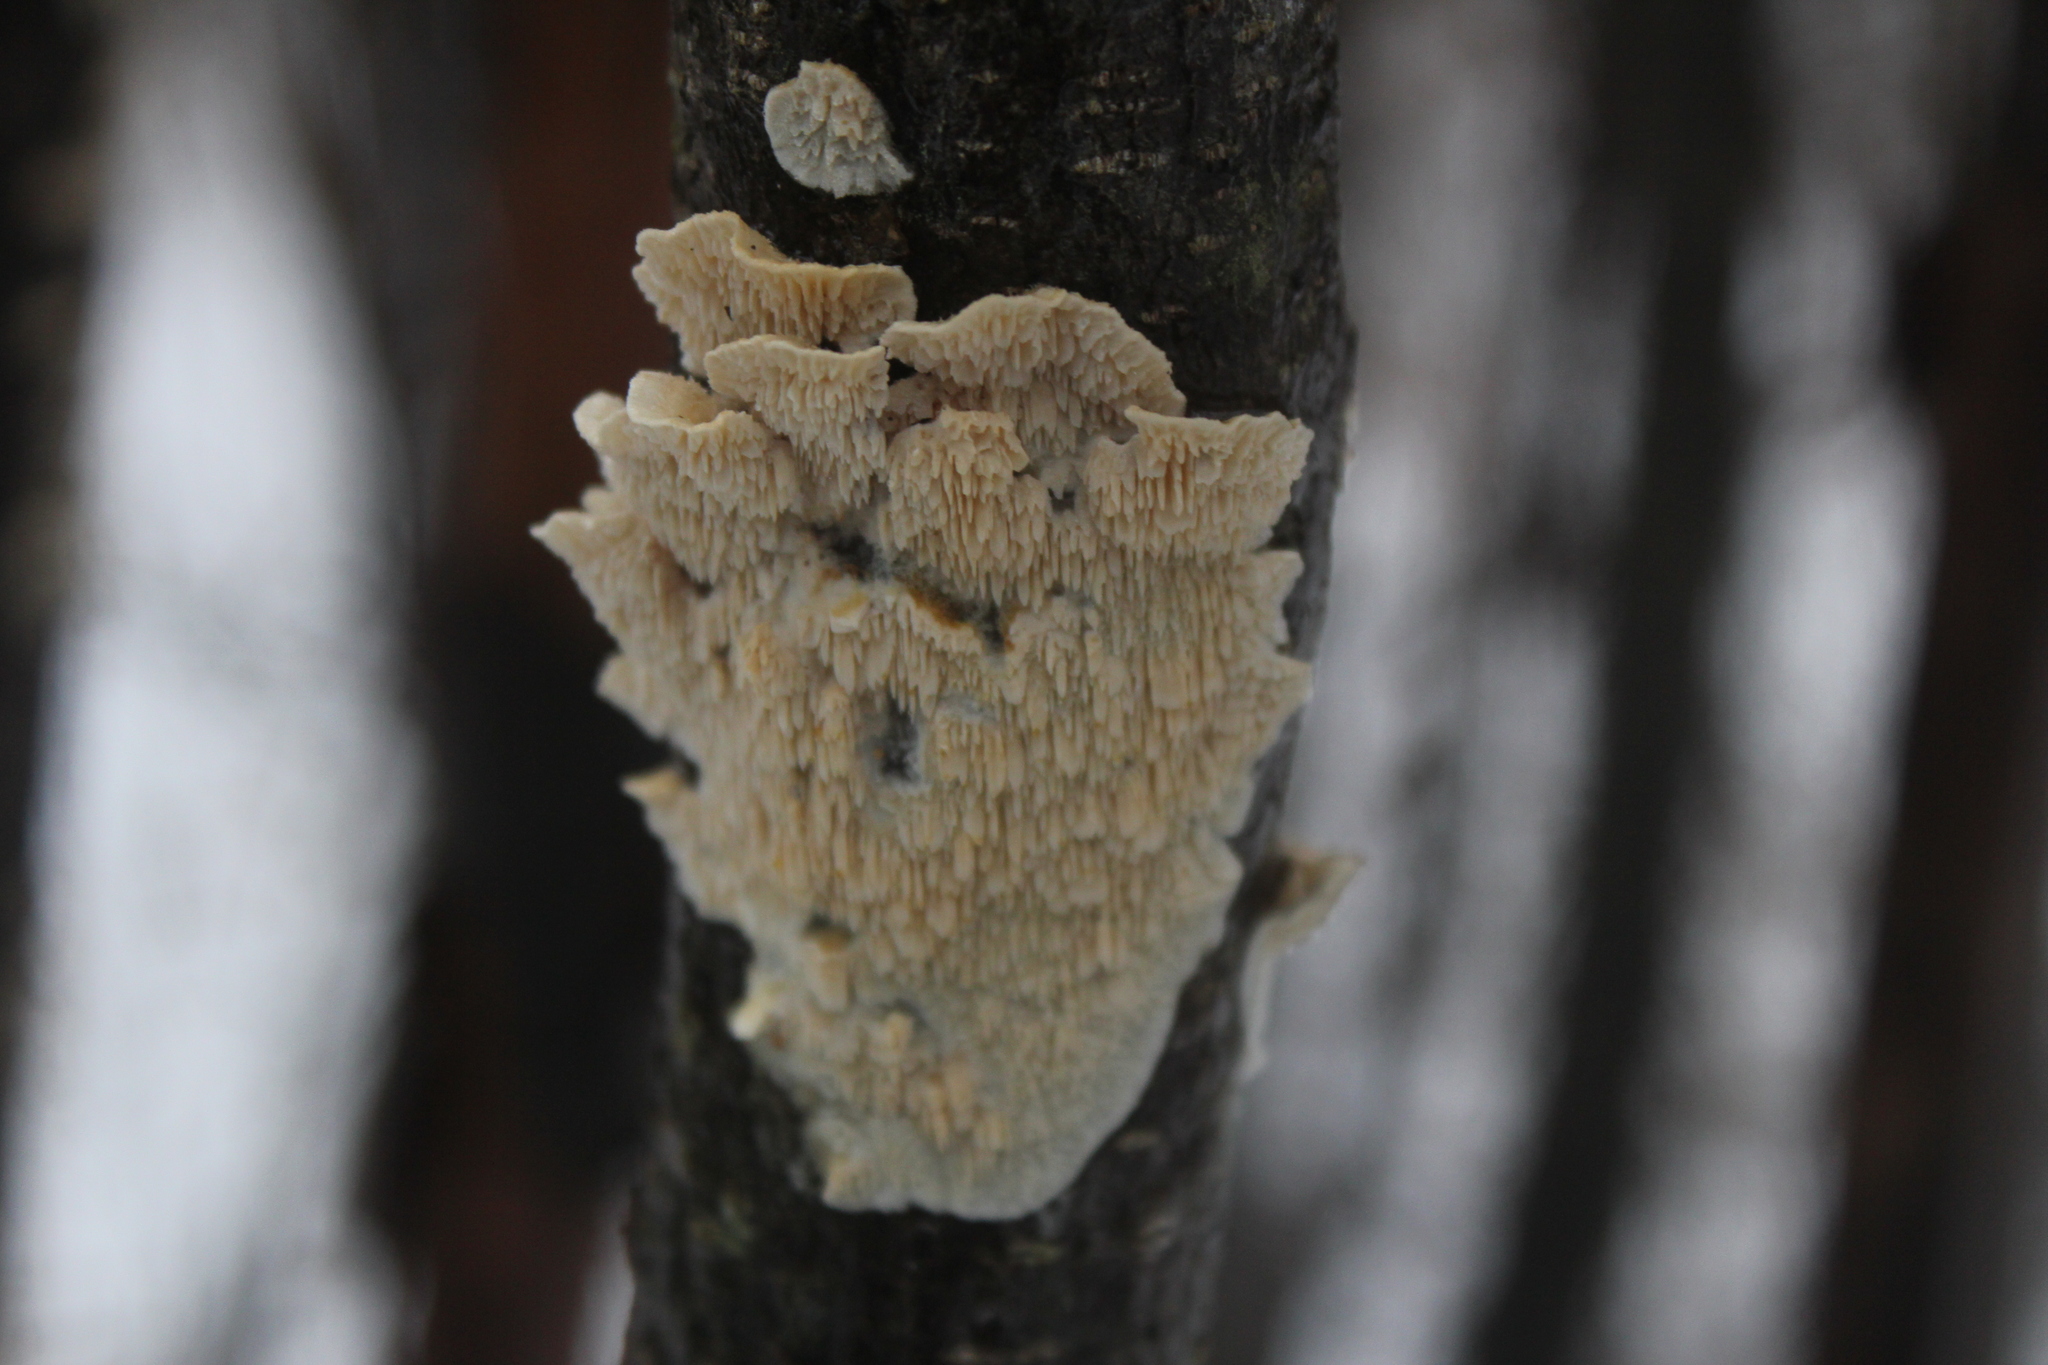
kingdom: Fungi
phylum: Basidiomycota
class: Agaricomycetes
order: Polyporales
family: Irpicaceae
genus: Irpex
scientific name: Irpex lacteus
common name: Milk-white toothed polypore
